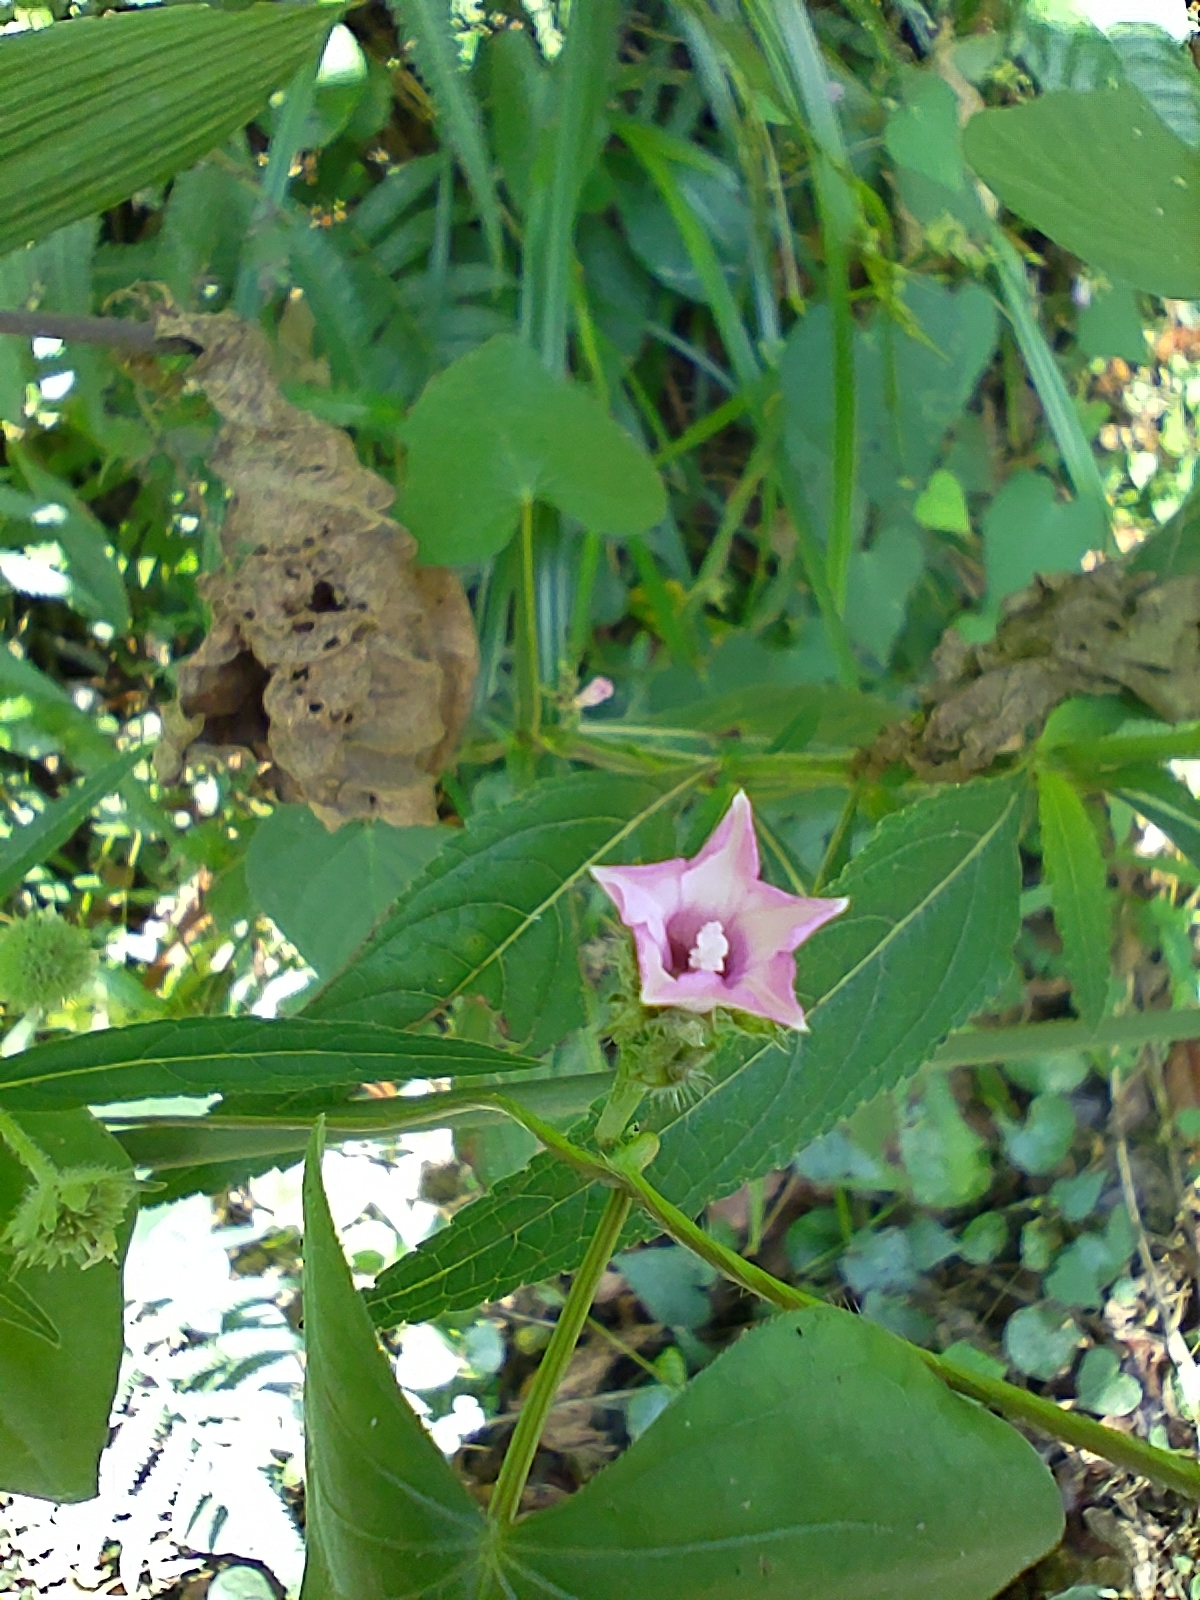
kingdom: Plantae
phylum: Tracheophyta
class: Magnoliopsida
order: Solanales
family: Convolvulaceae
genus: Ipomoea
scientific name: Ipomoea triloba
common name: Little-bell
